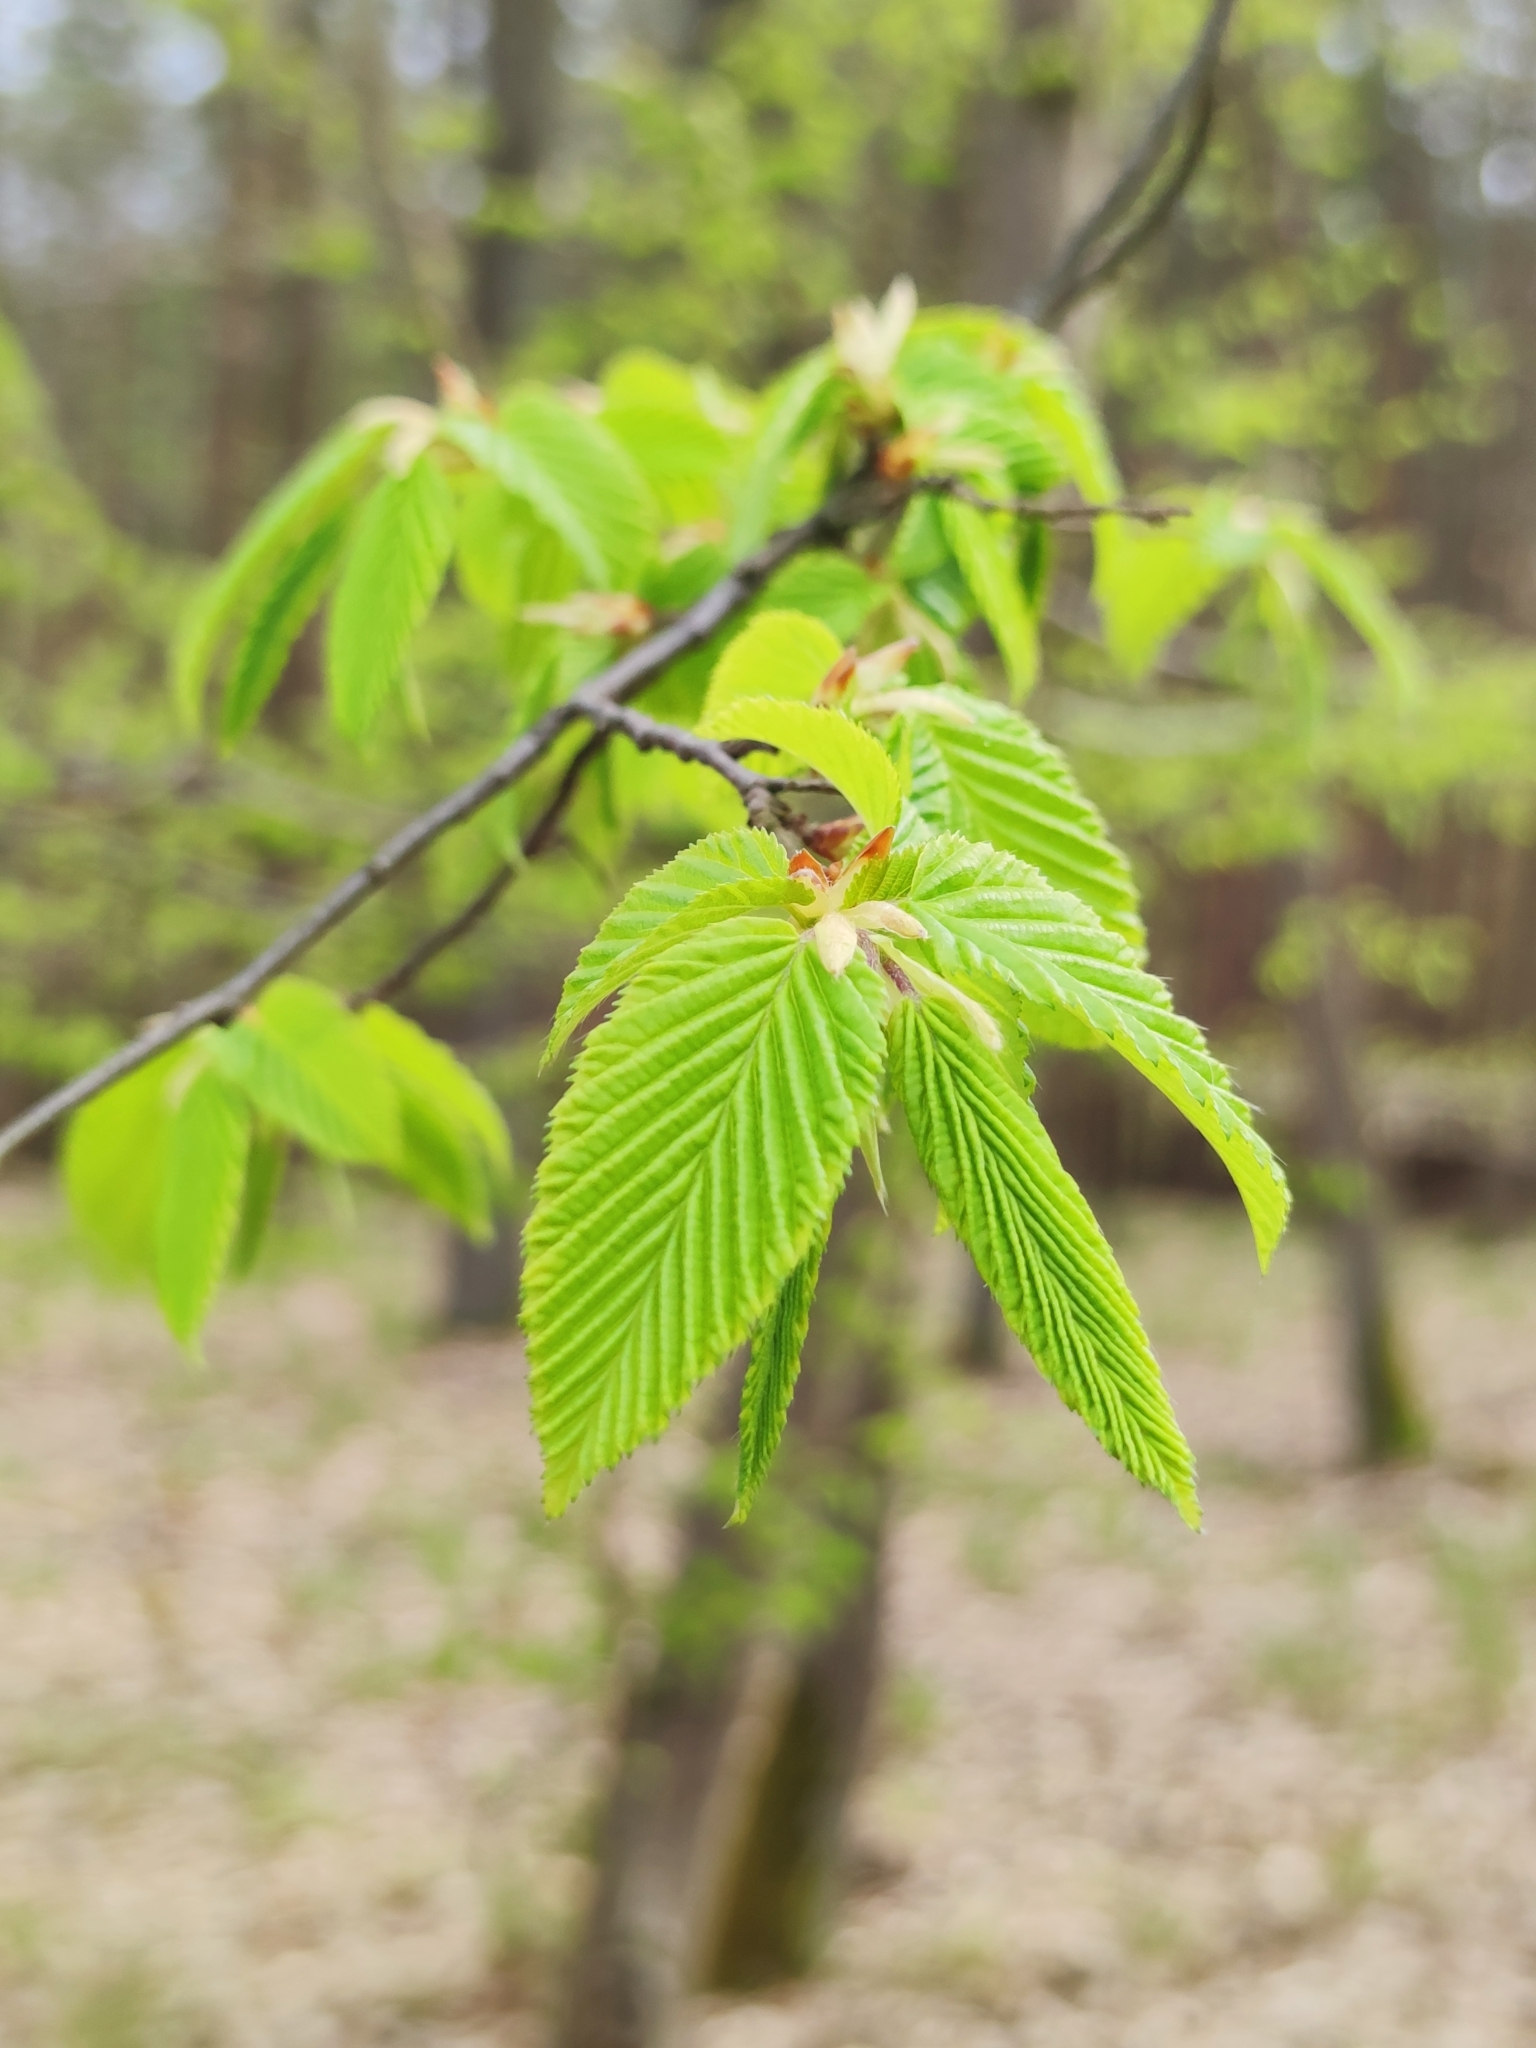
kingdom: Plantae
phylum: Tracheophyta
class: Magnoliopsida
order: Fagales
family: Betulaceae
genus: Carpinus
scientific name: Carpinus betulus
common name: Hornbeam
